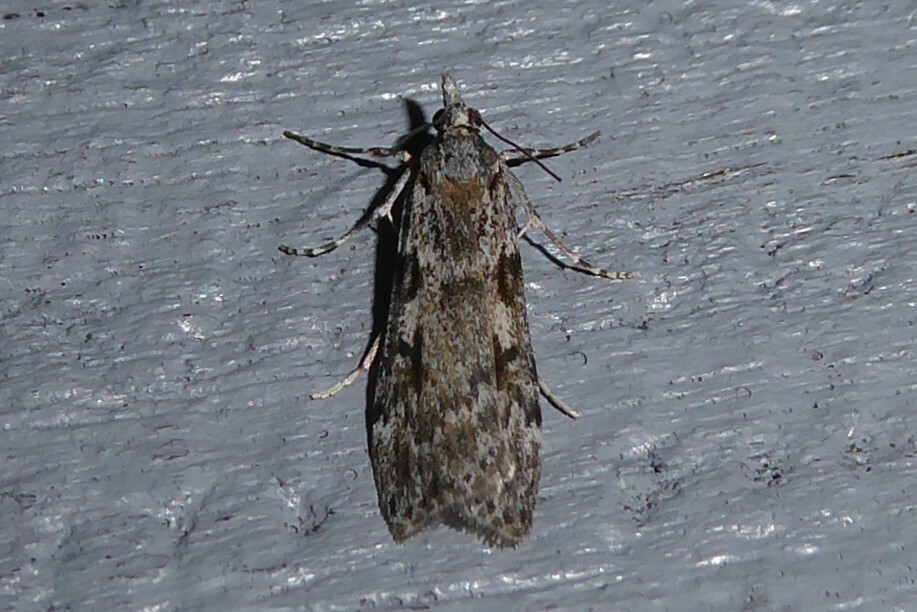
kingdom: Animalia
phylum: Arthropoda
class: Insecta
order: Lepidoptera
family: Crambidae
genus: Scoparia
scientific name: Scoparia halopis
